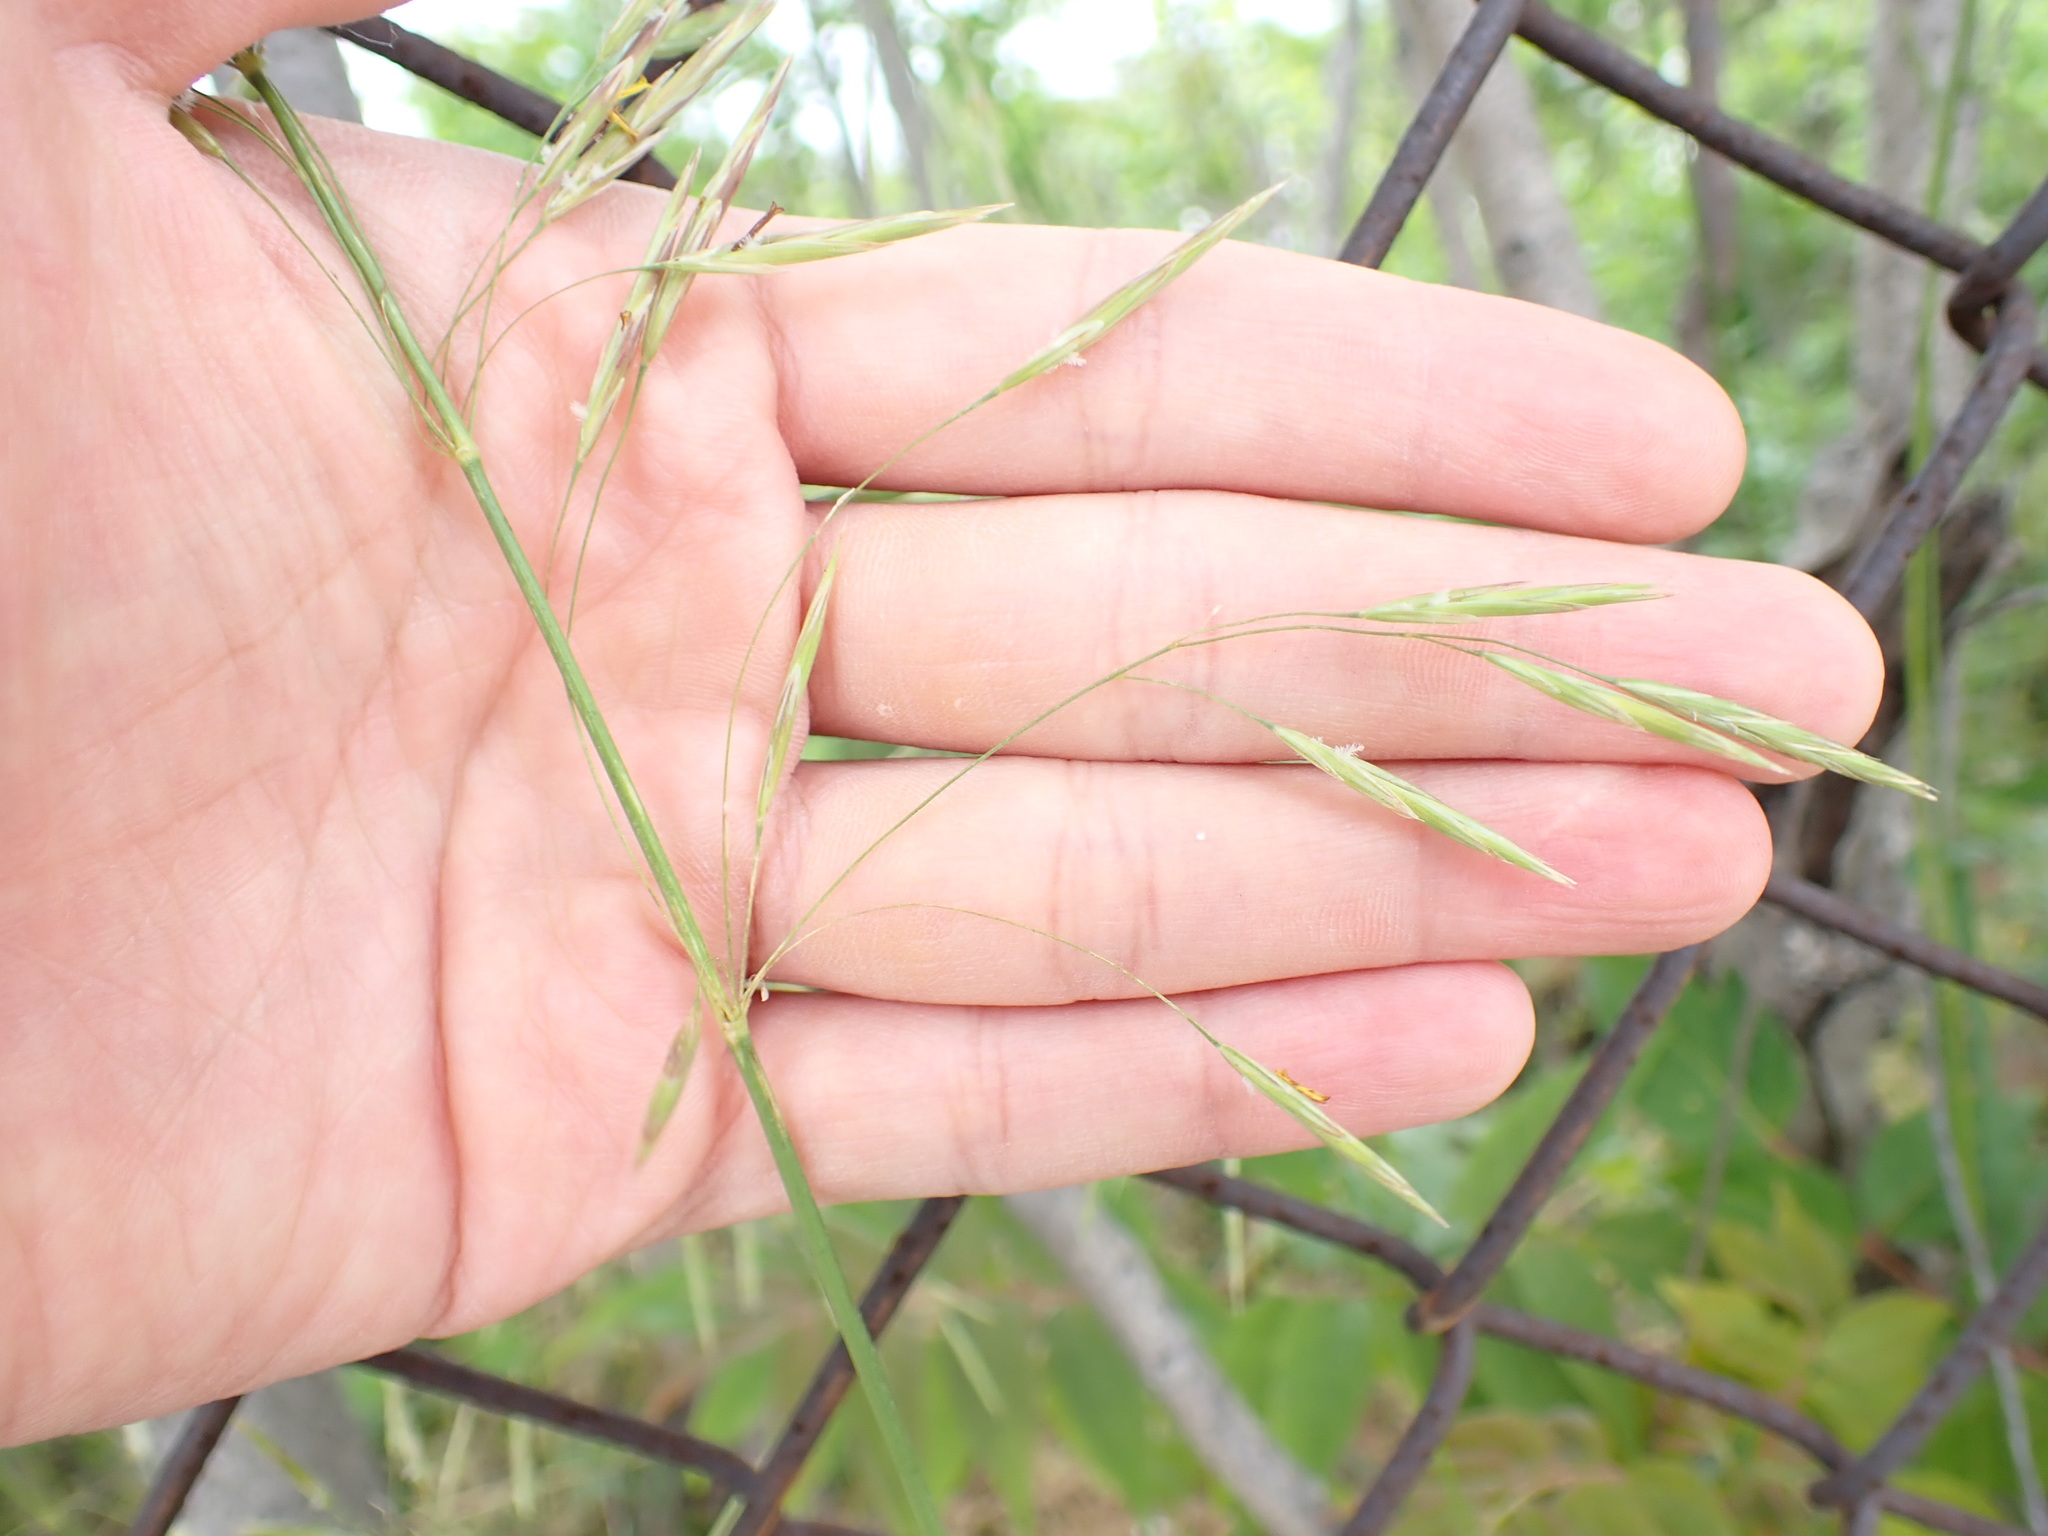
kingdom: Plantae
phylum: Tracheophyta
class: Liliopsida
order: Poales
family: Poaceae
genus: Bromus
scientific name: Bromus inermis
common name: Smooth brome
